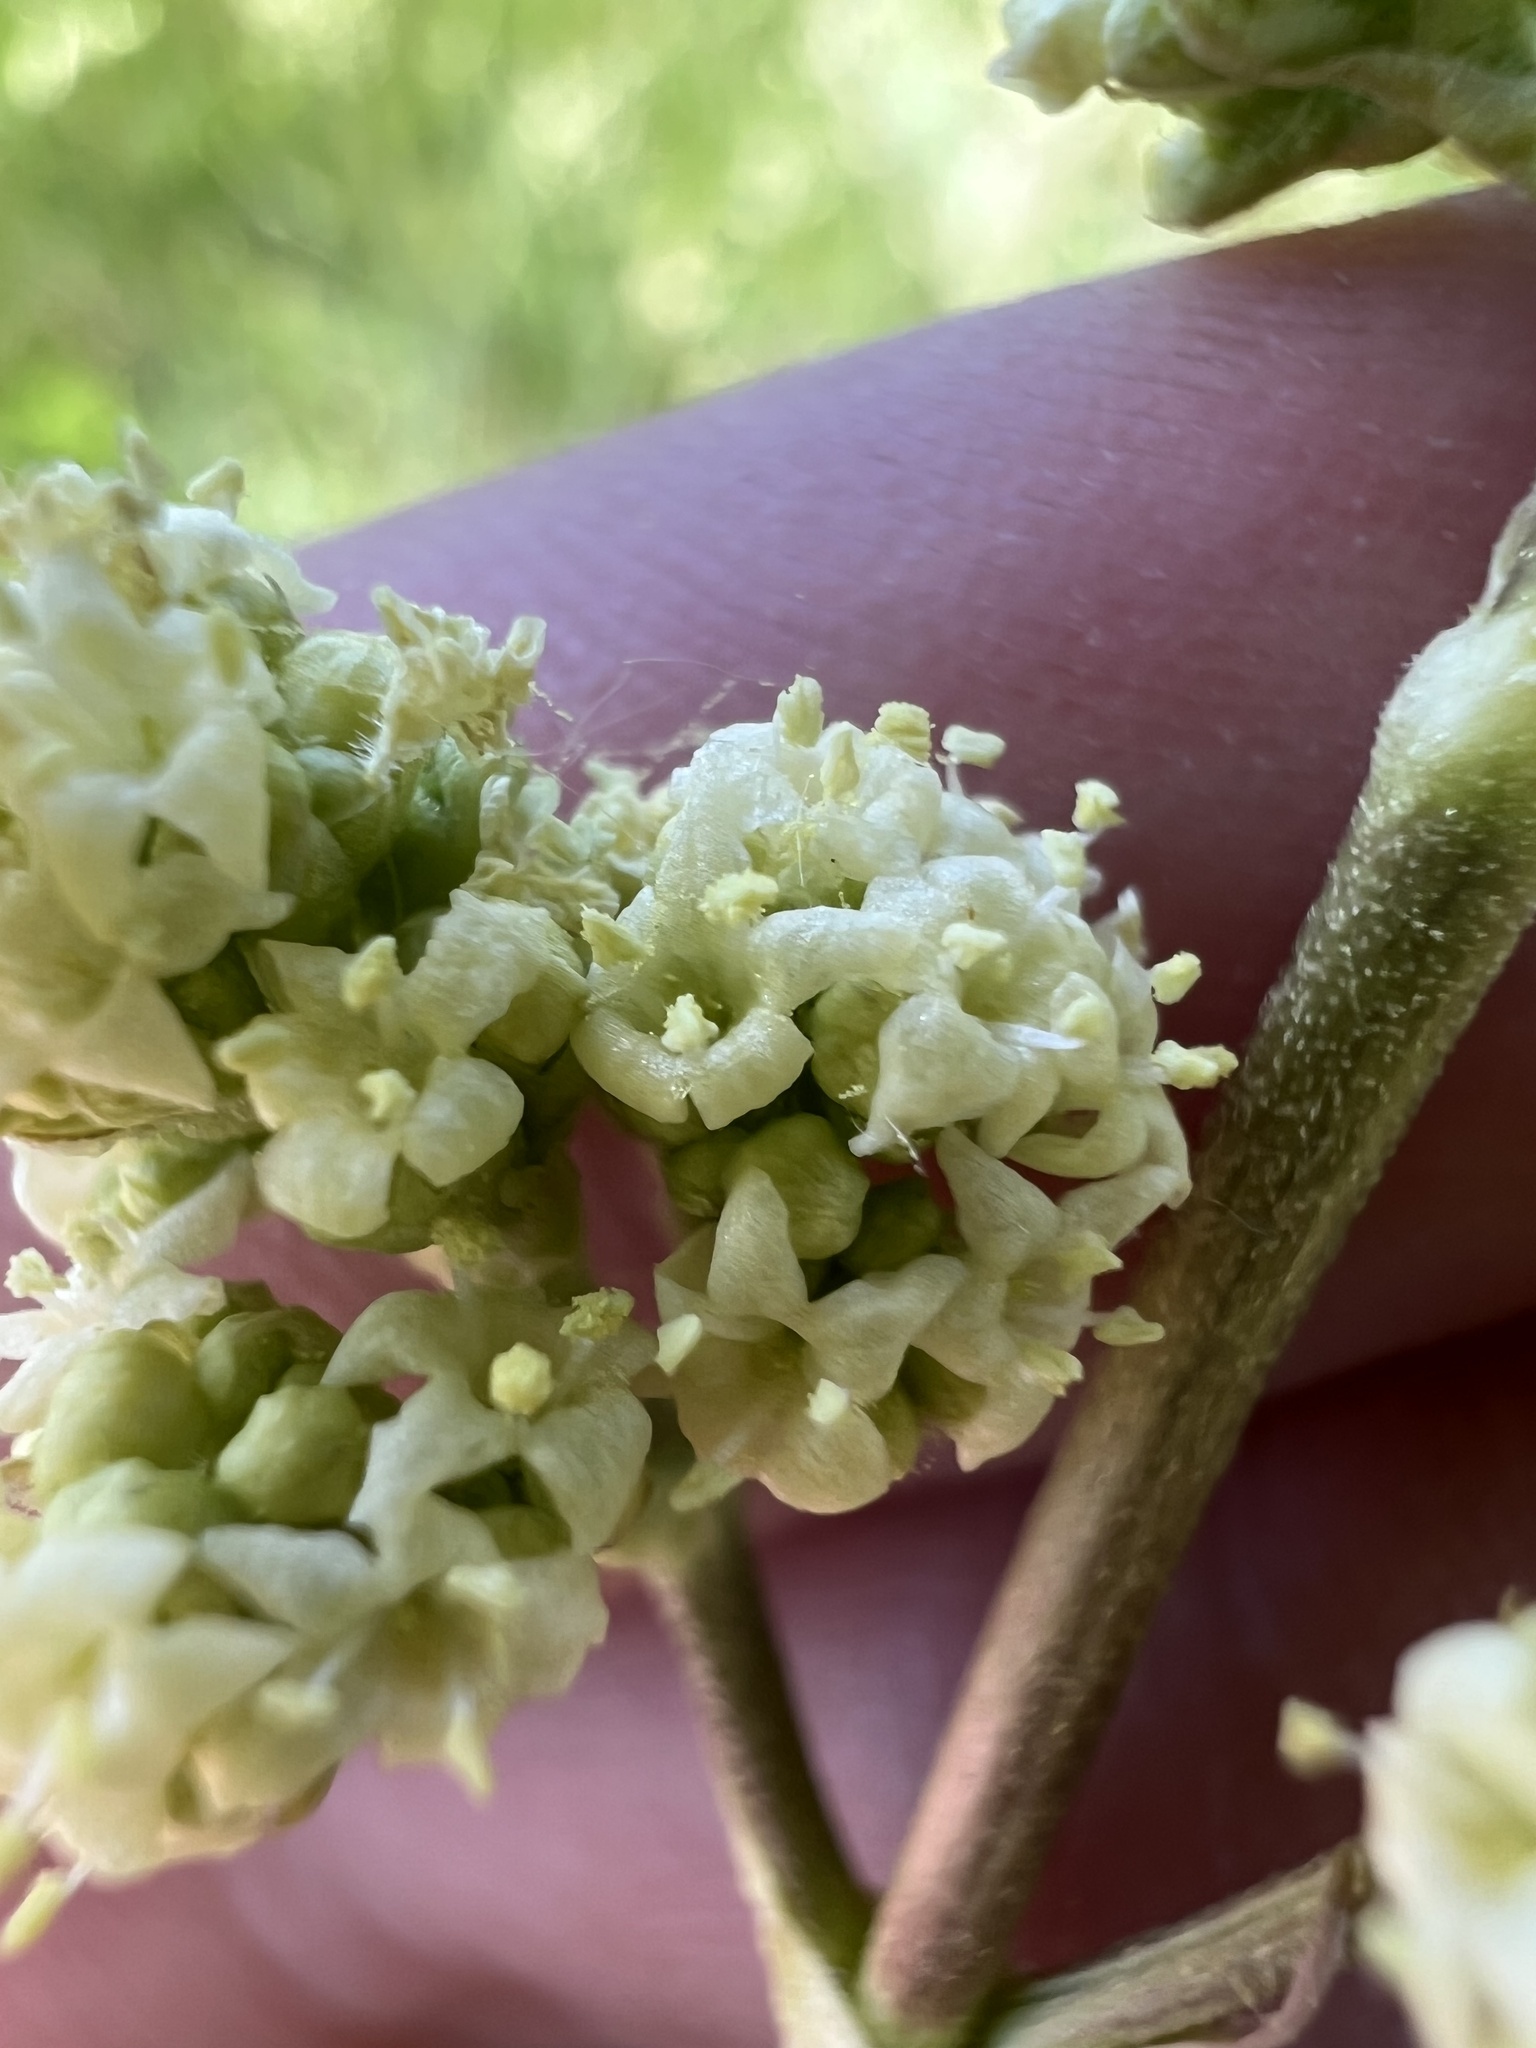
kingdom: Plantae
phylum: Tracheophyta
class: Magnoliopsida
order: Dipsacales
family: Caprifoliaceae
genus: Valeriana
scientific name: Valeriana edulis
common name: Taproot valerian
